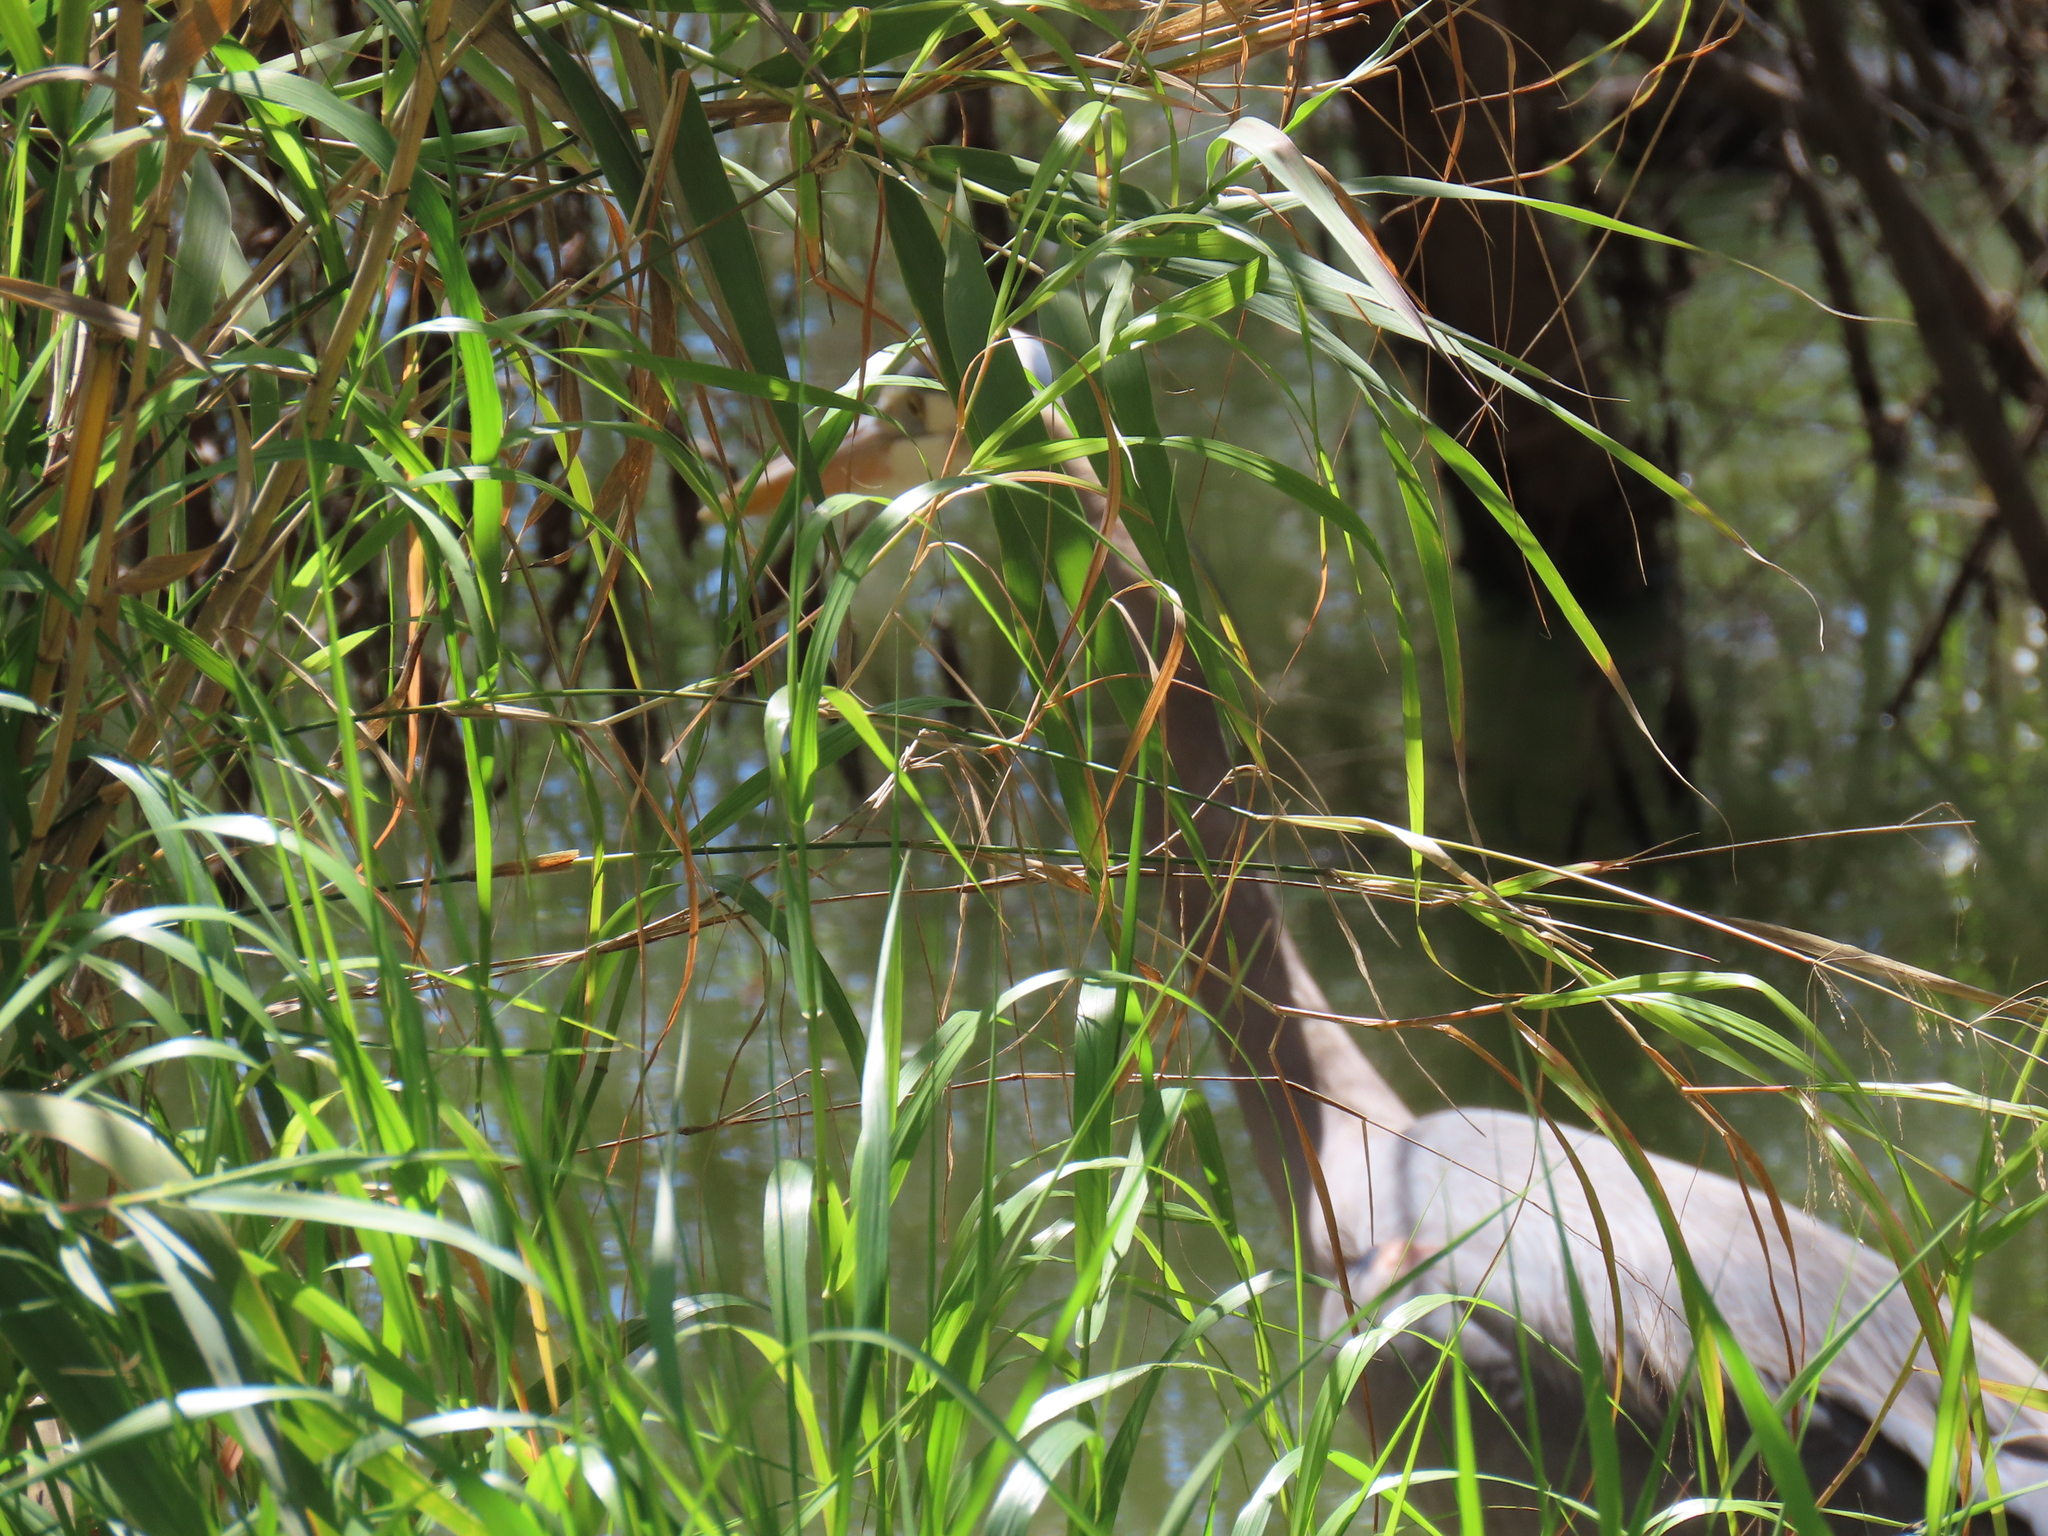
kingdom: Animalia
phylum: Chordata
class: Aves
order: Pelecaniformes
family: Ardeidae
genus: Ardea
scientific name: Ardea herodias
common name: Great blue heron
